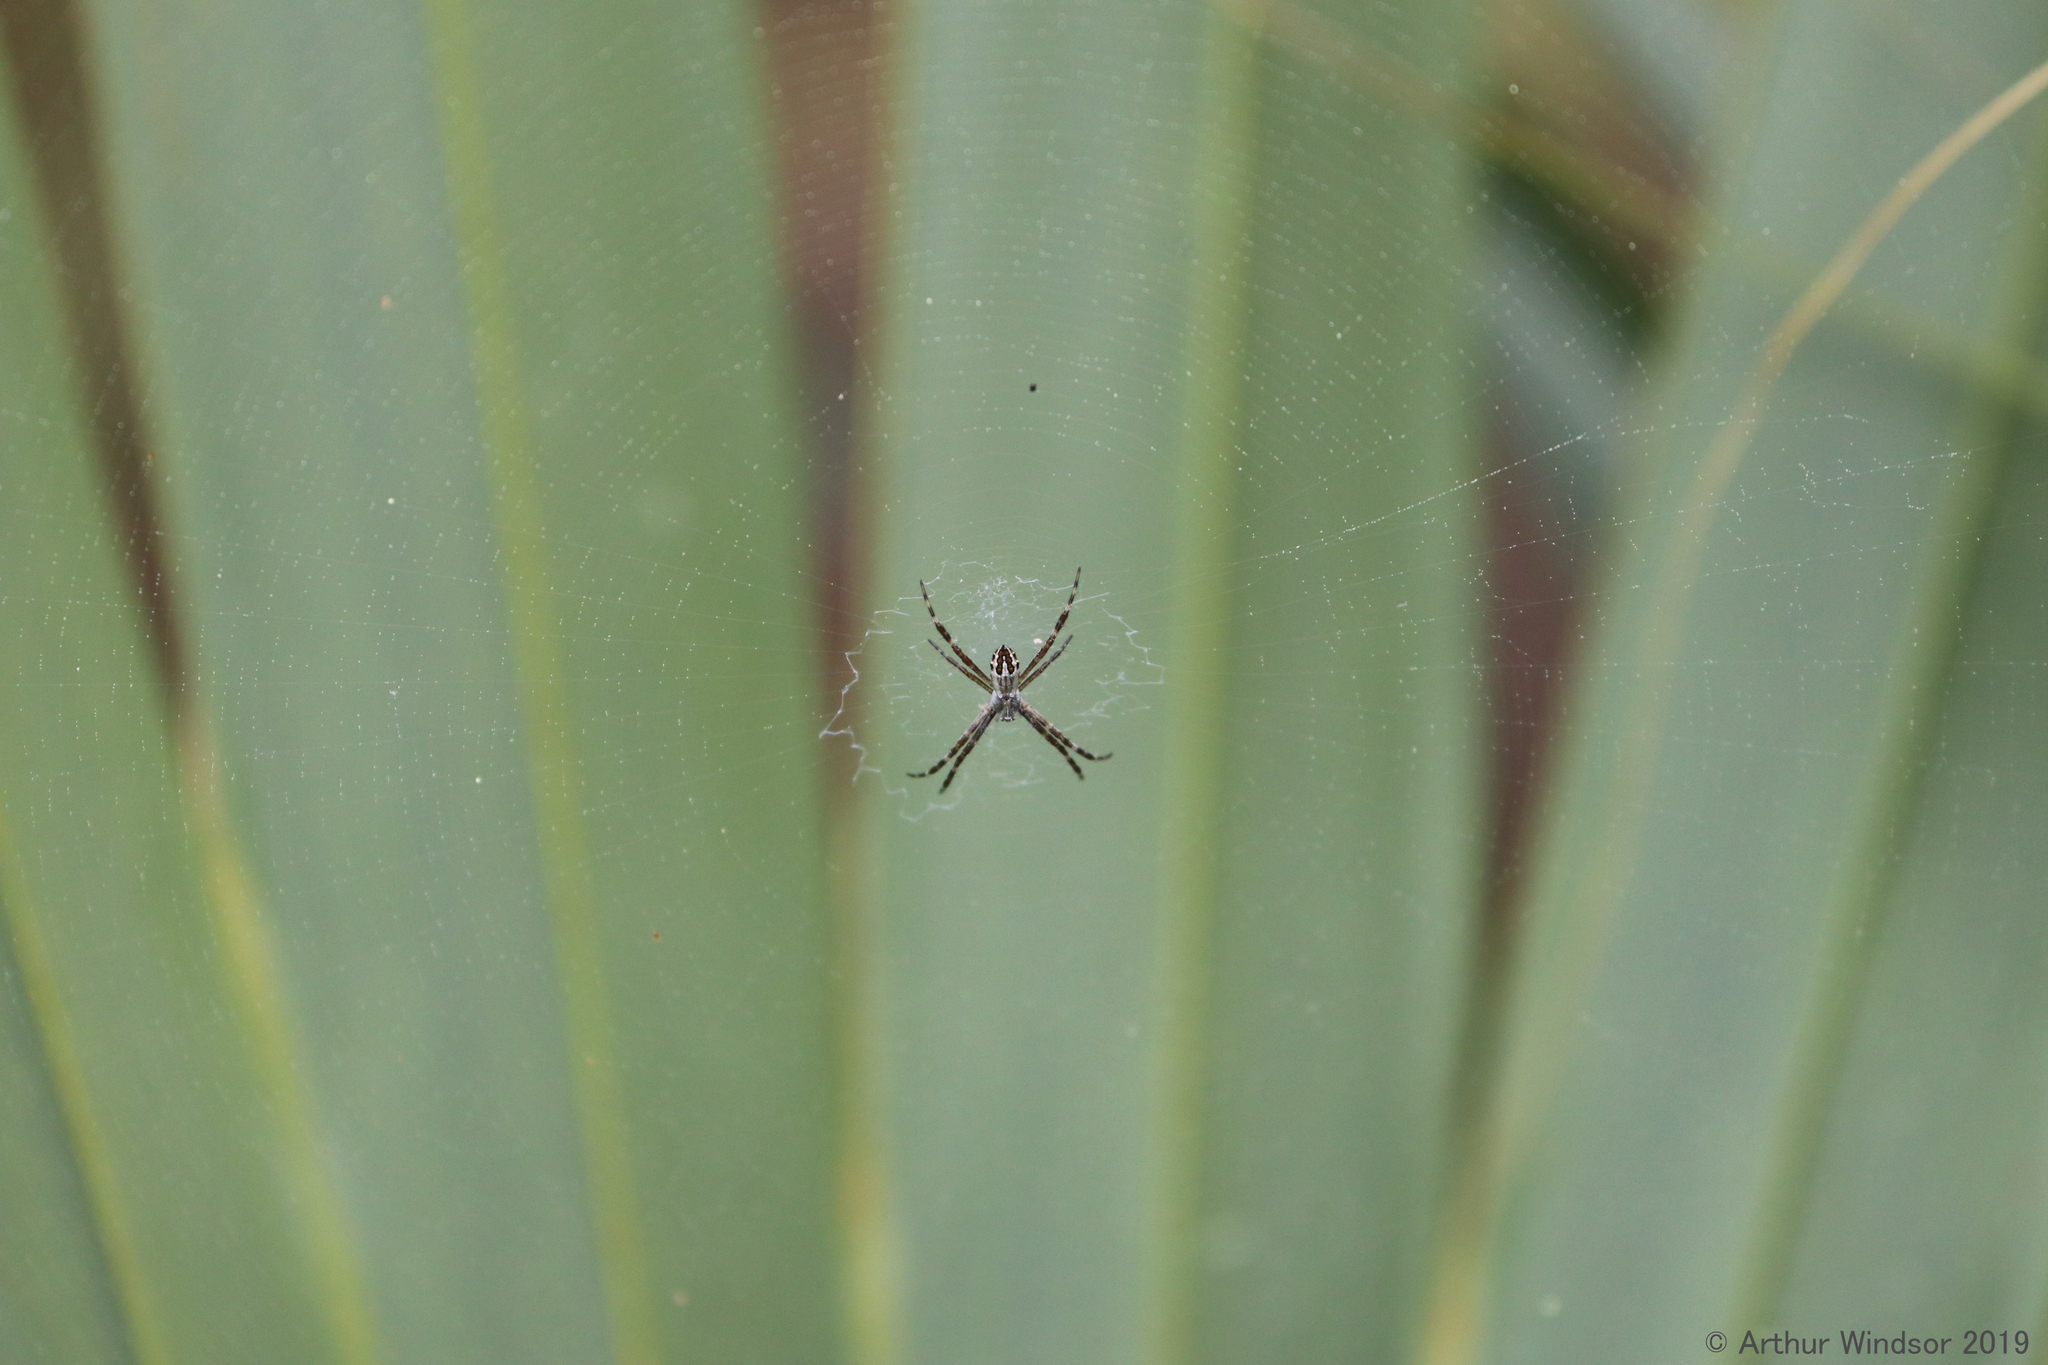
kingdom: Animalia
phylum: Arthropoda
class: Arachnida
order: Araneae
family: Araneidae
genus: Argiope
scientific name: Argiope argentata
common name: Orb weavers
